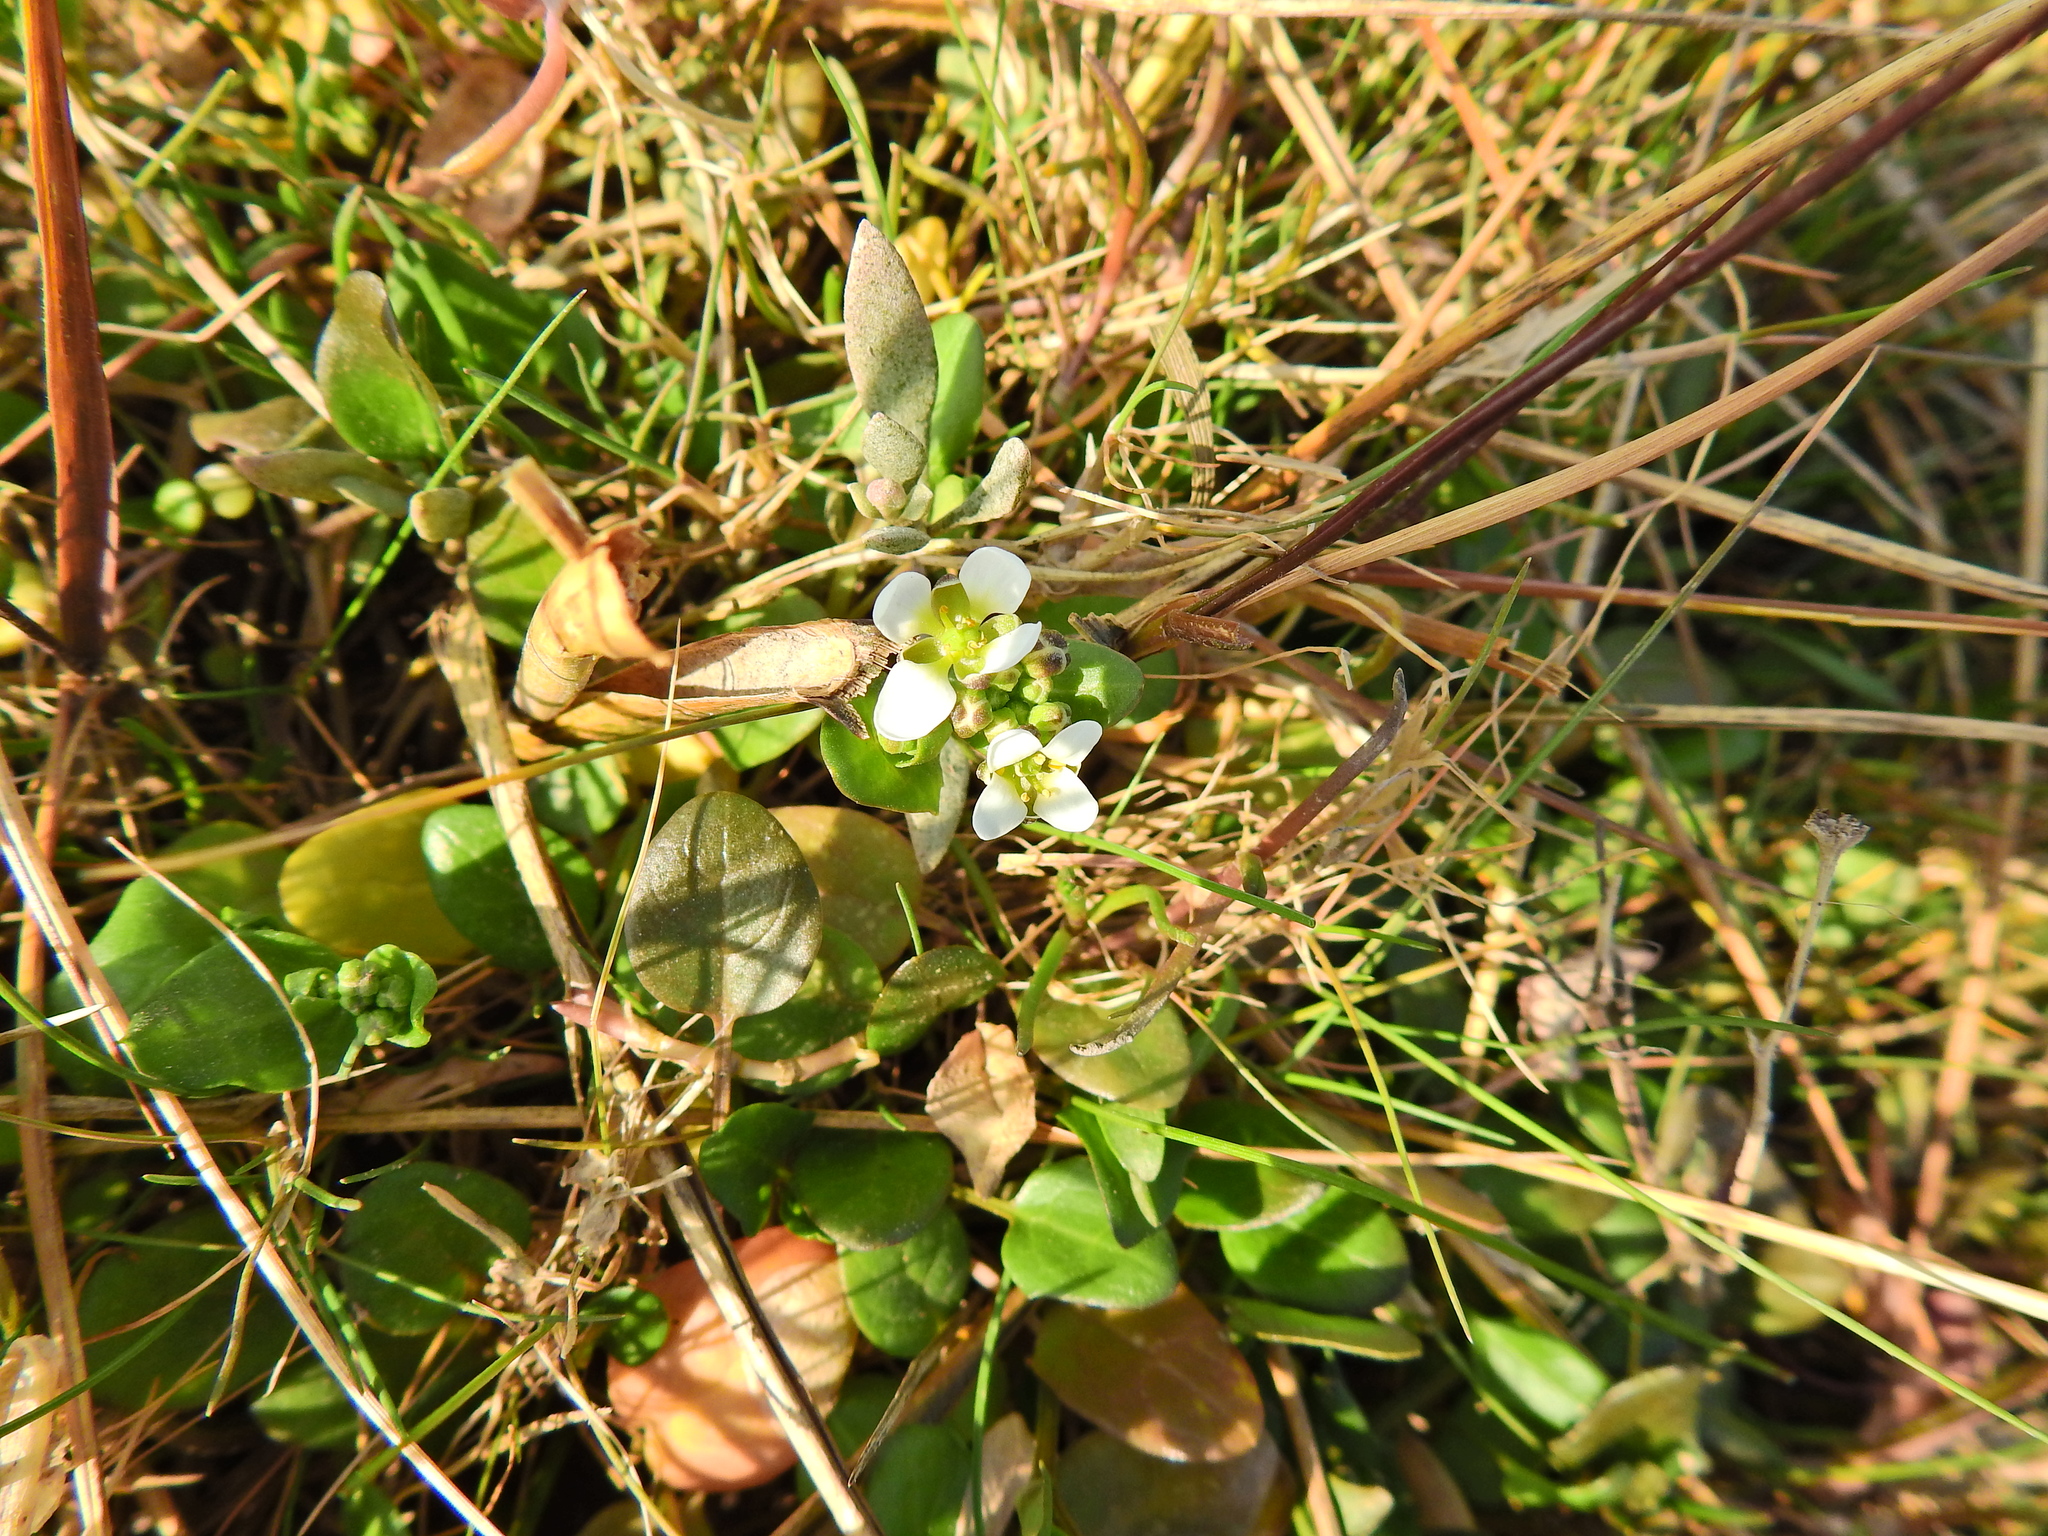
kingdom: Plantae
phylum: Tracheophyta
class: Magnoliopsida
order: Brassicales
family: Brassicaceae
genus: Cochlearia
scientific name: Cochlearia anglica
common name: English scurvygrass
